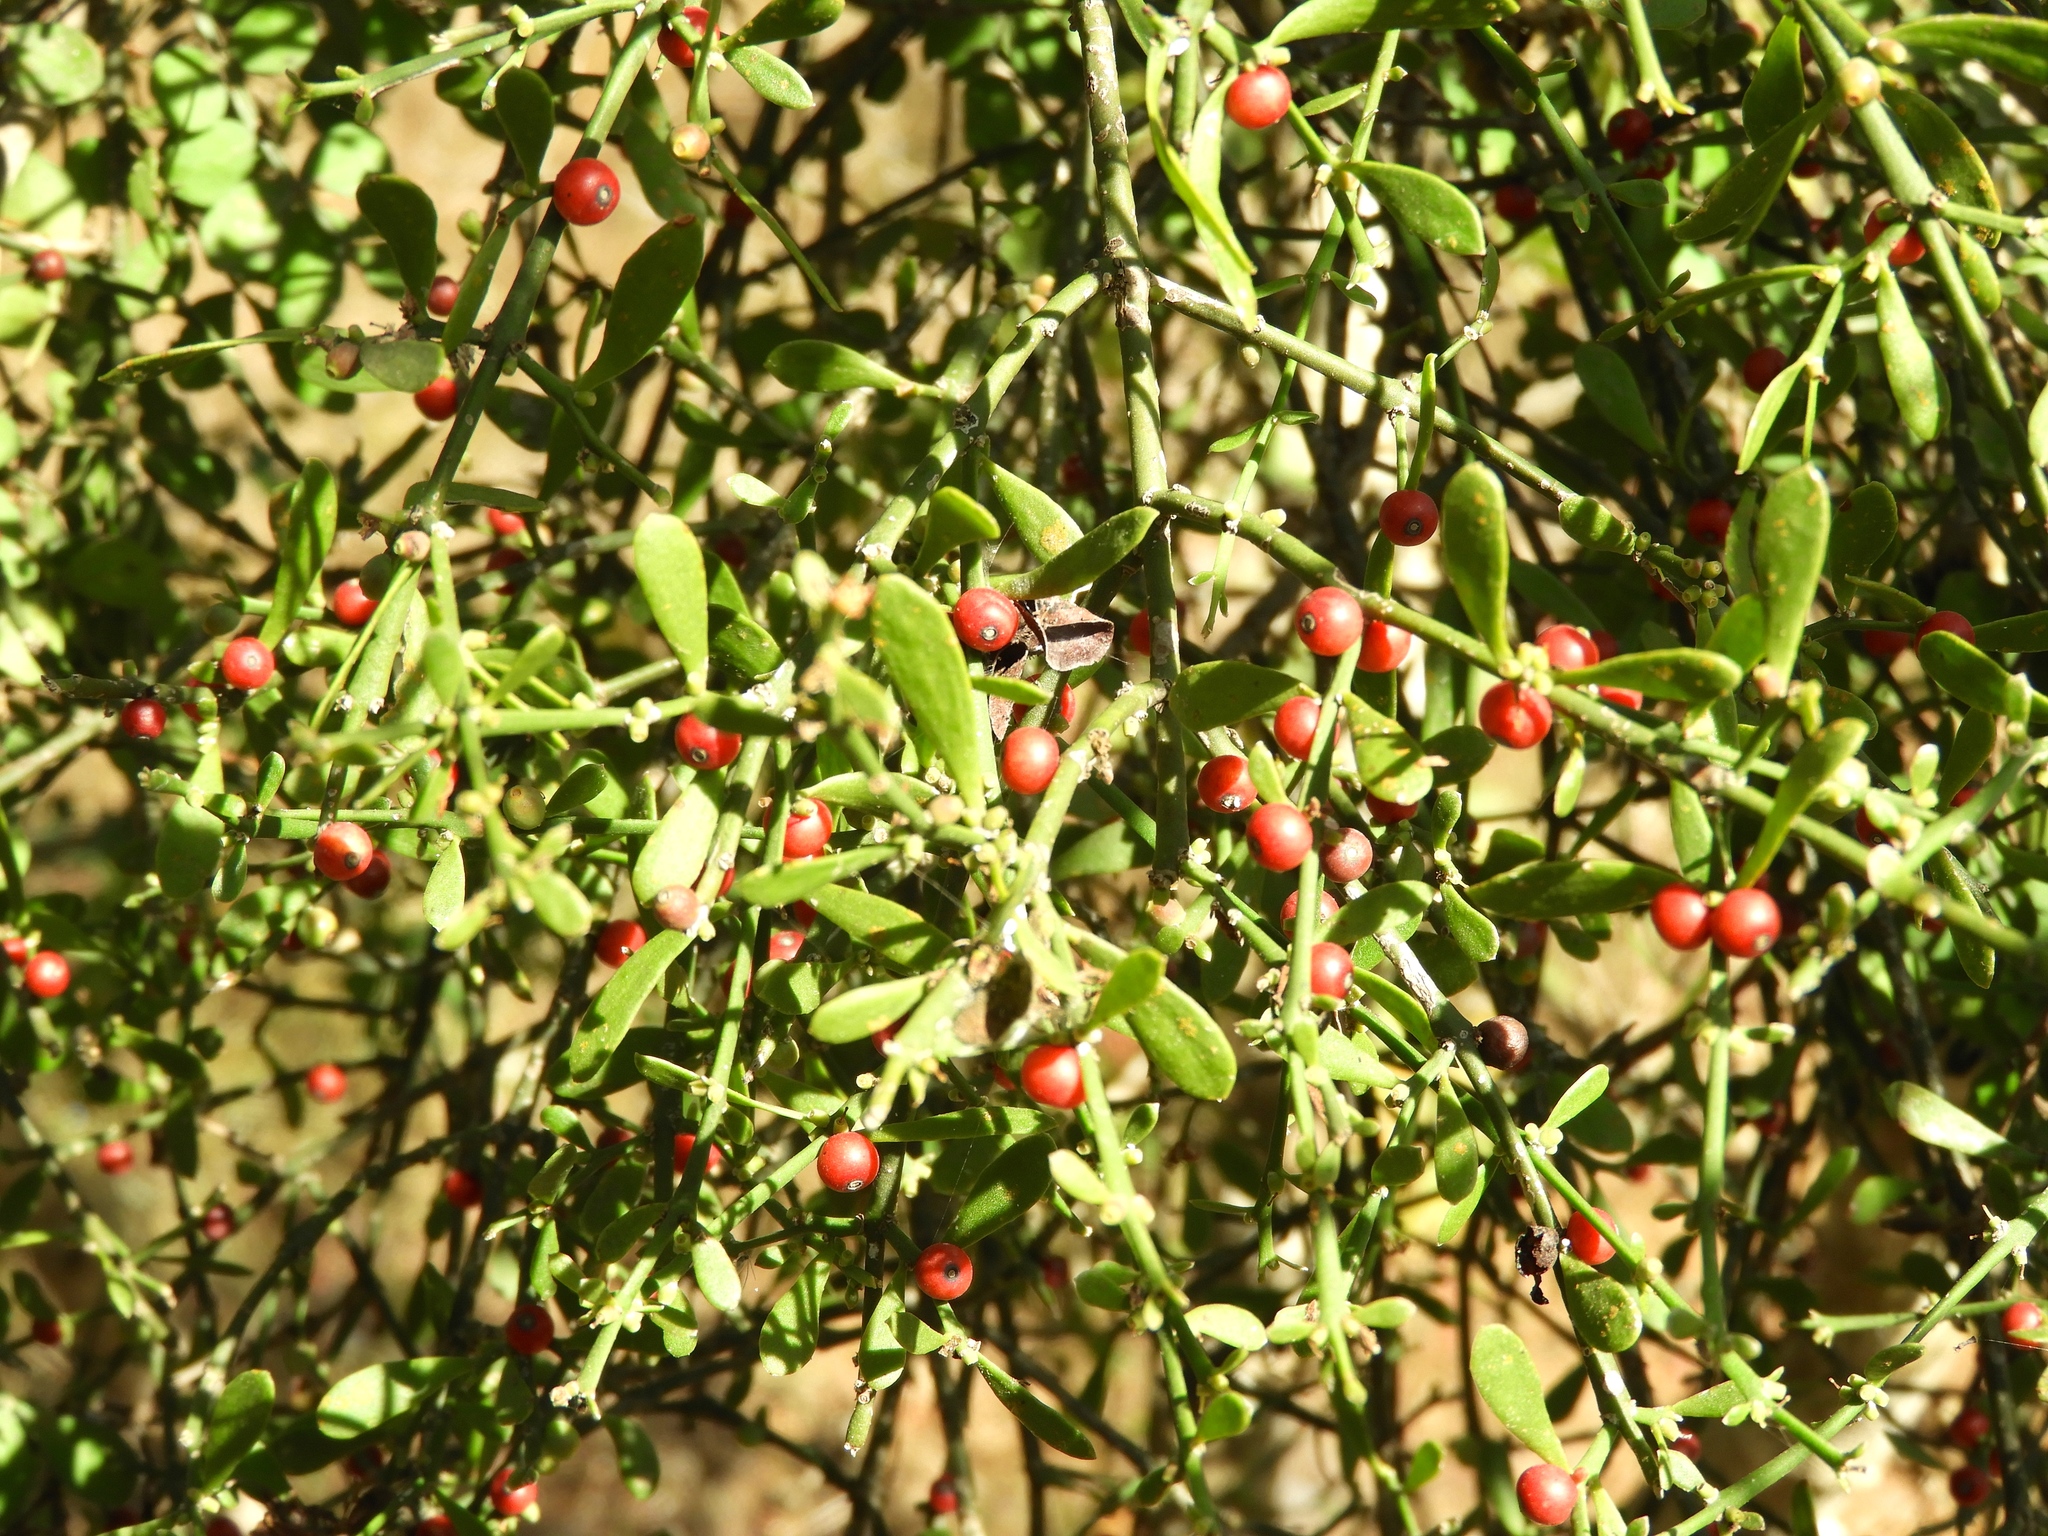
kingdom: Plantae
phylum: Tracheophyta
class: Magnoliopsida
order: Santalales
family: Loranthaceae
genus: Phthirusa
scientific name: Phthirusa inconspicua
